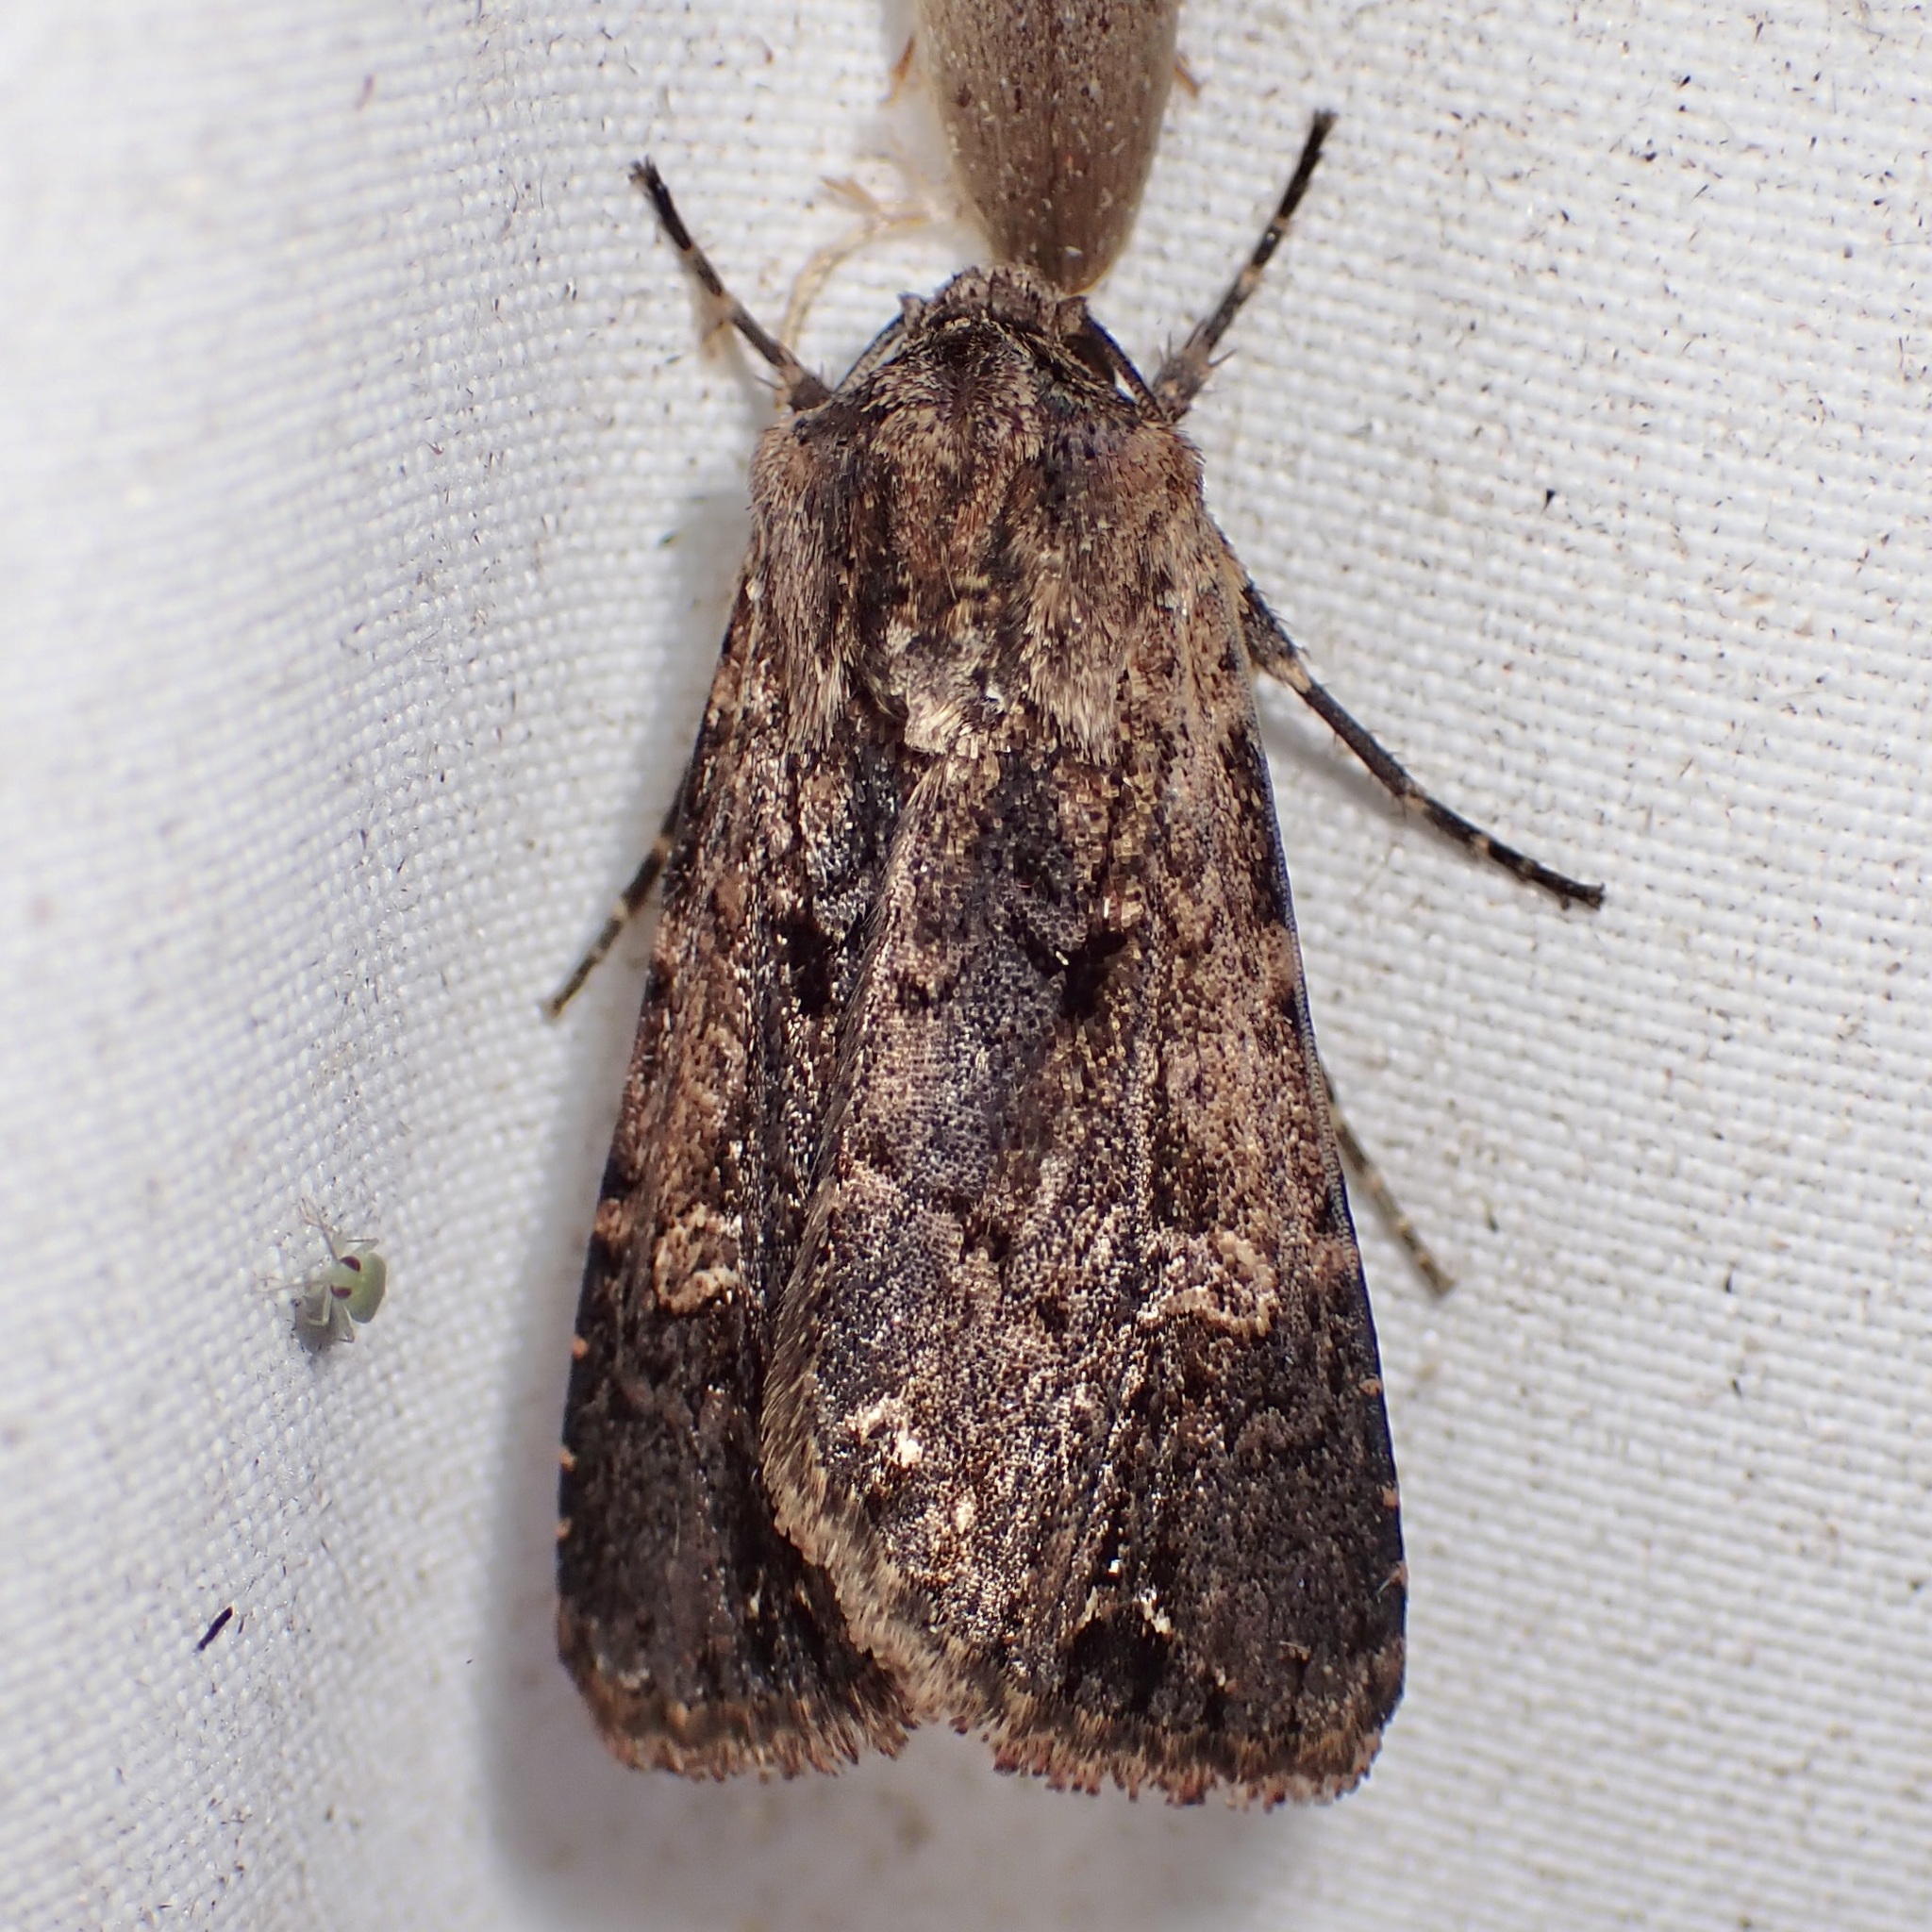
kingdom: Animalia
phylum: Arthropoda
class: Insecta
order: Lepidoptera
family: Noctuidae
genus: Dichagyris
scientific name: Dichagyris proclivis
